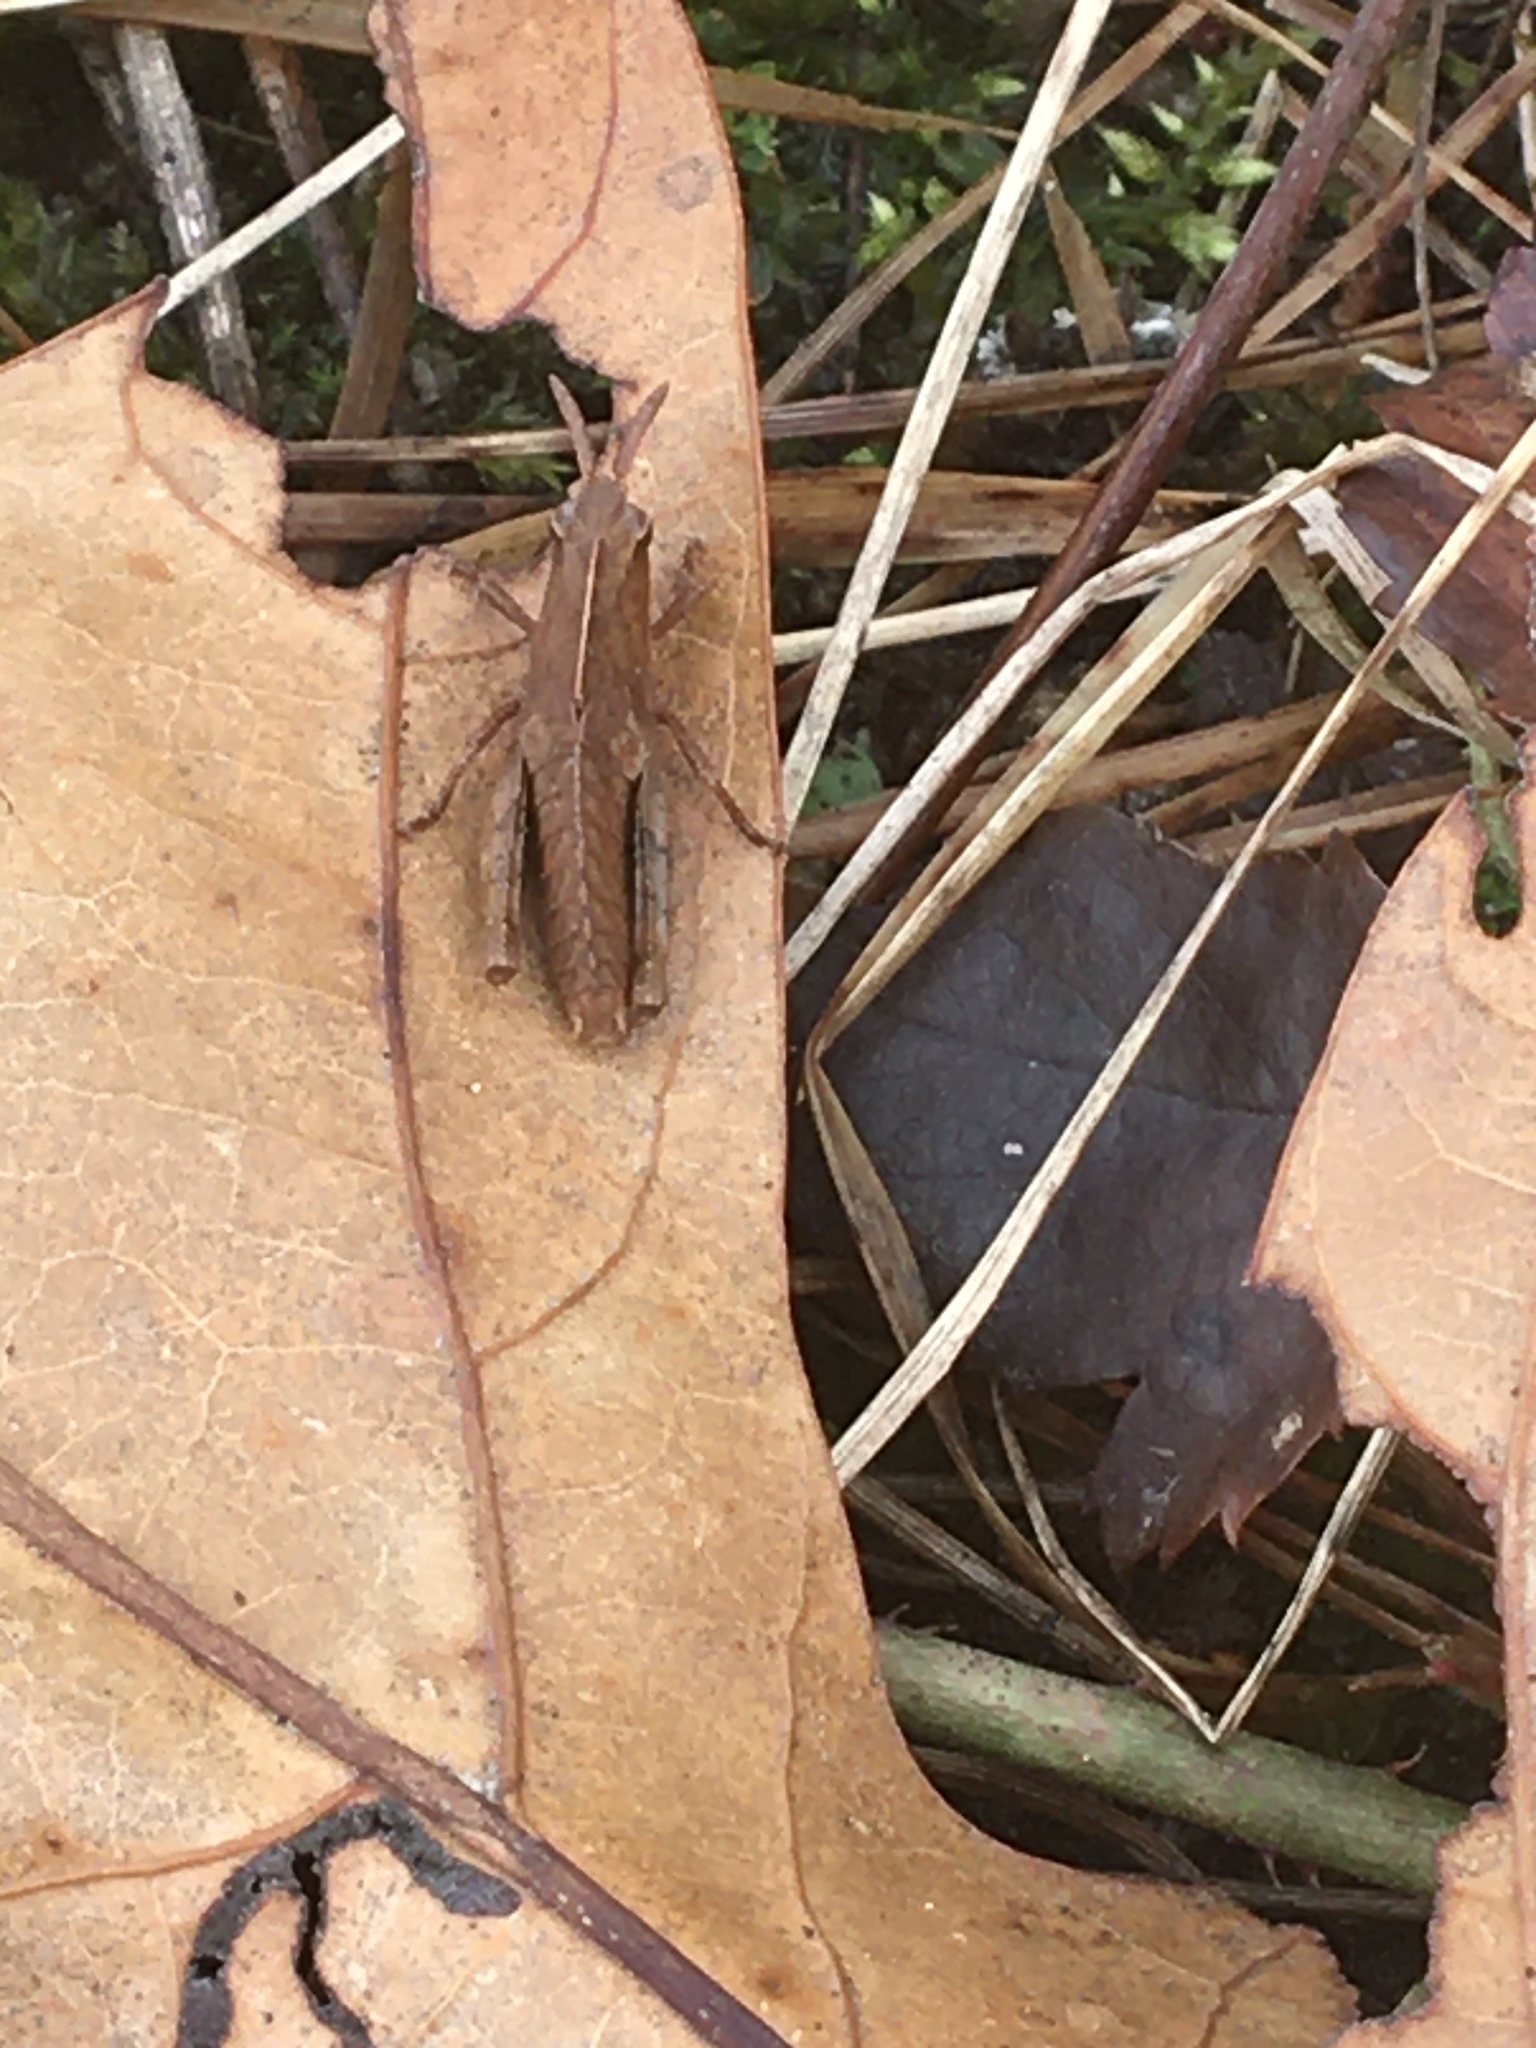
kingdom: Animalia
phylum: Arthropoda
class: Insecta
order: Orthoptera
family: Acrididae
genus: Chortophaga
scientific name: Chortophaga viridifasciata
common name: Green-striped grasshopper
